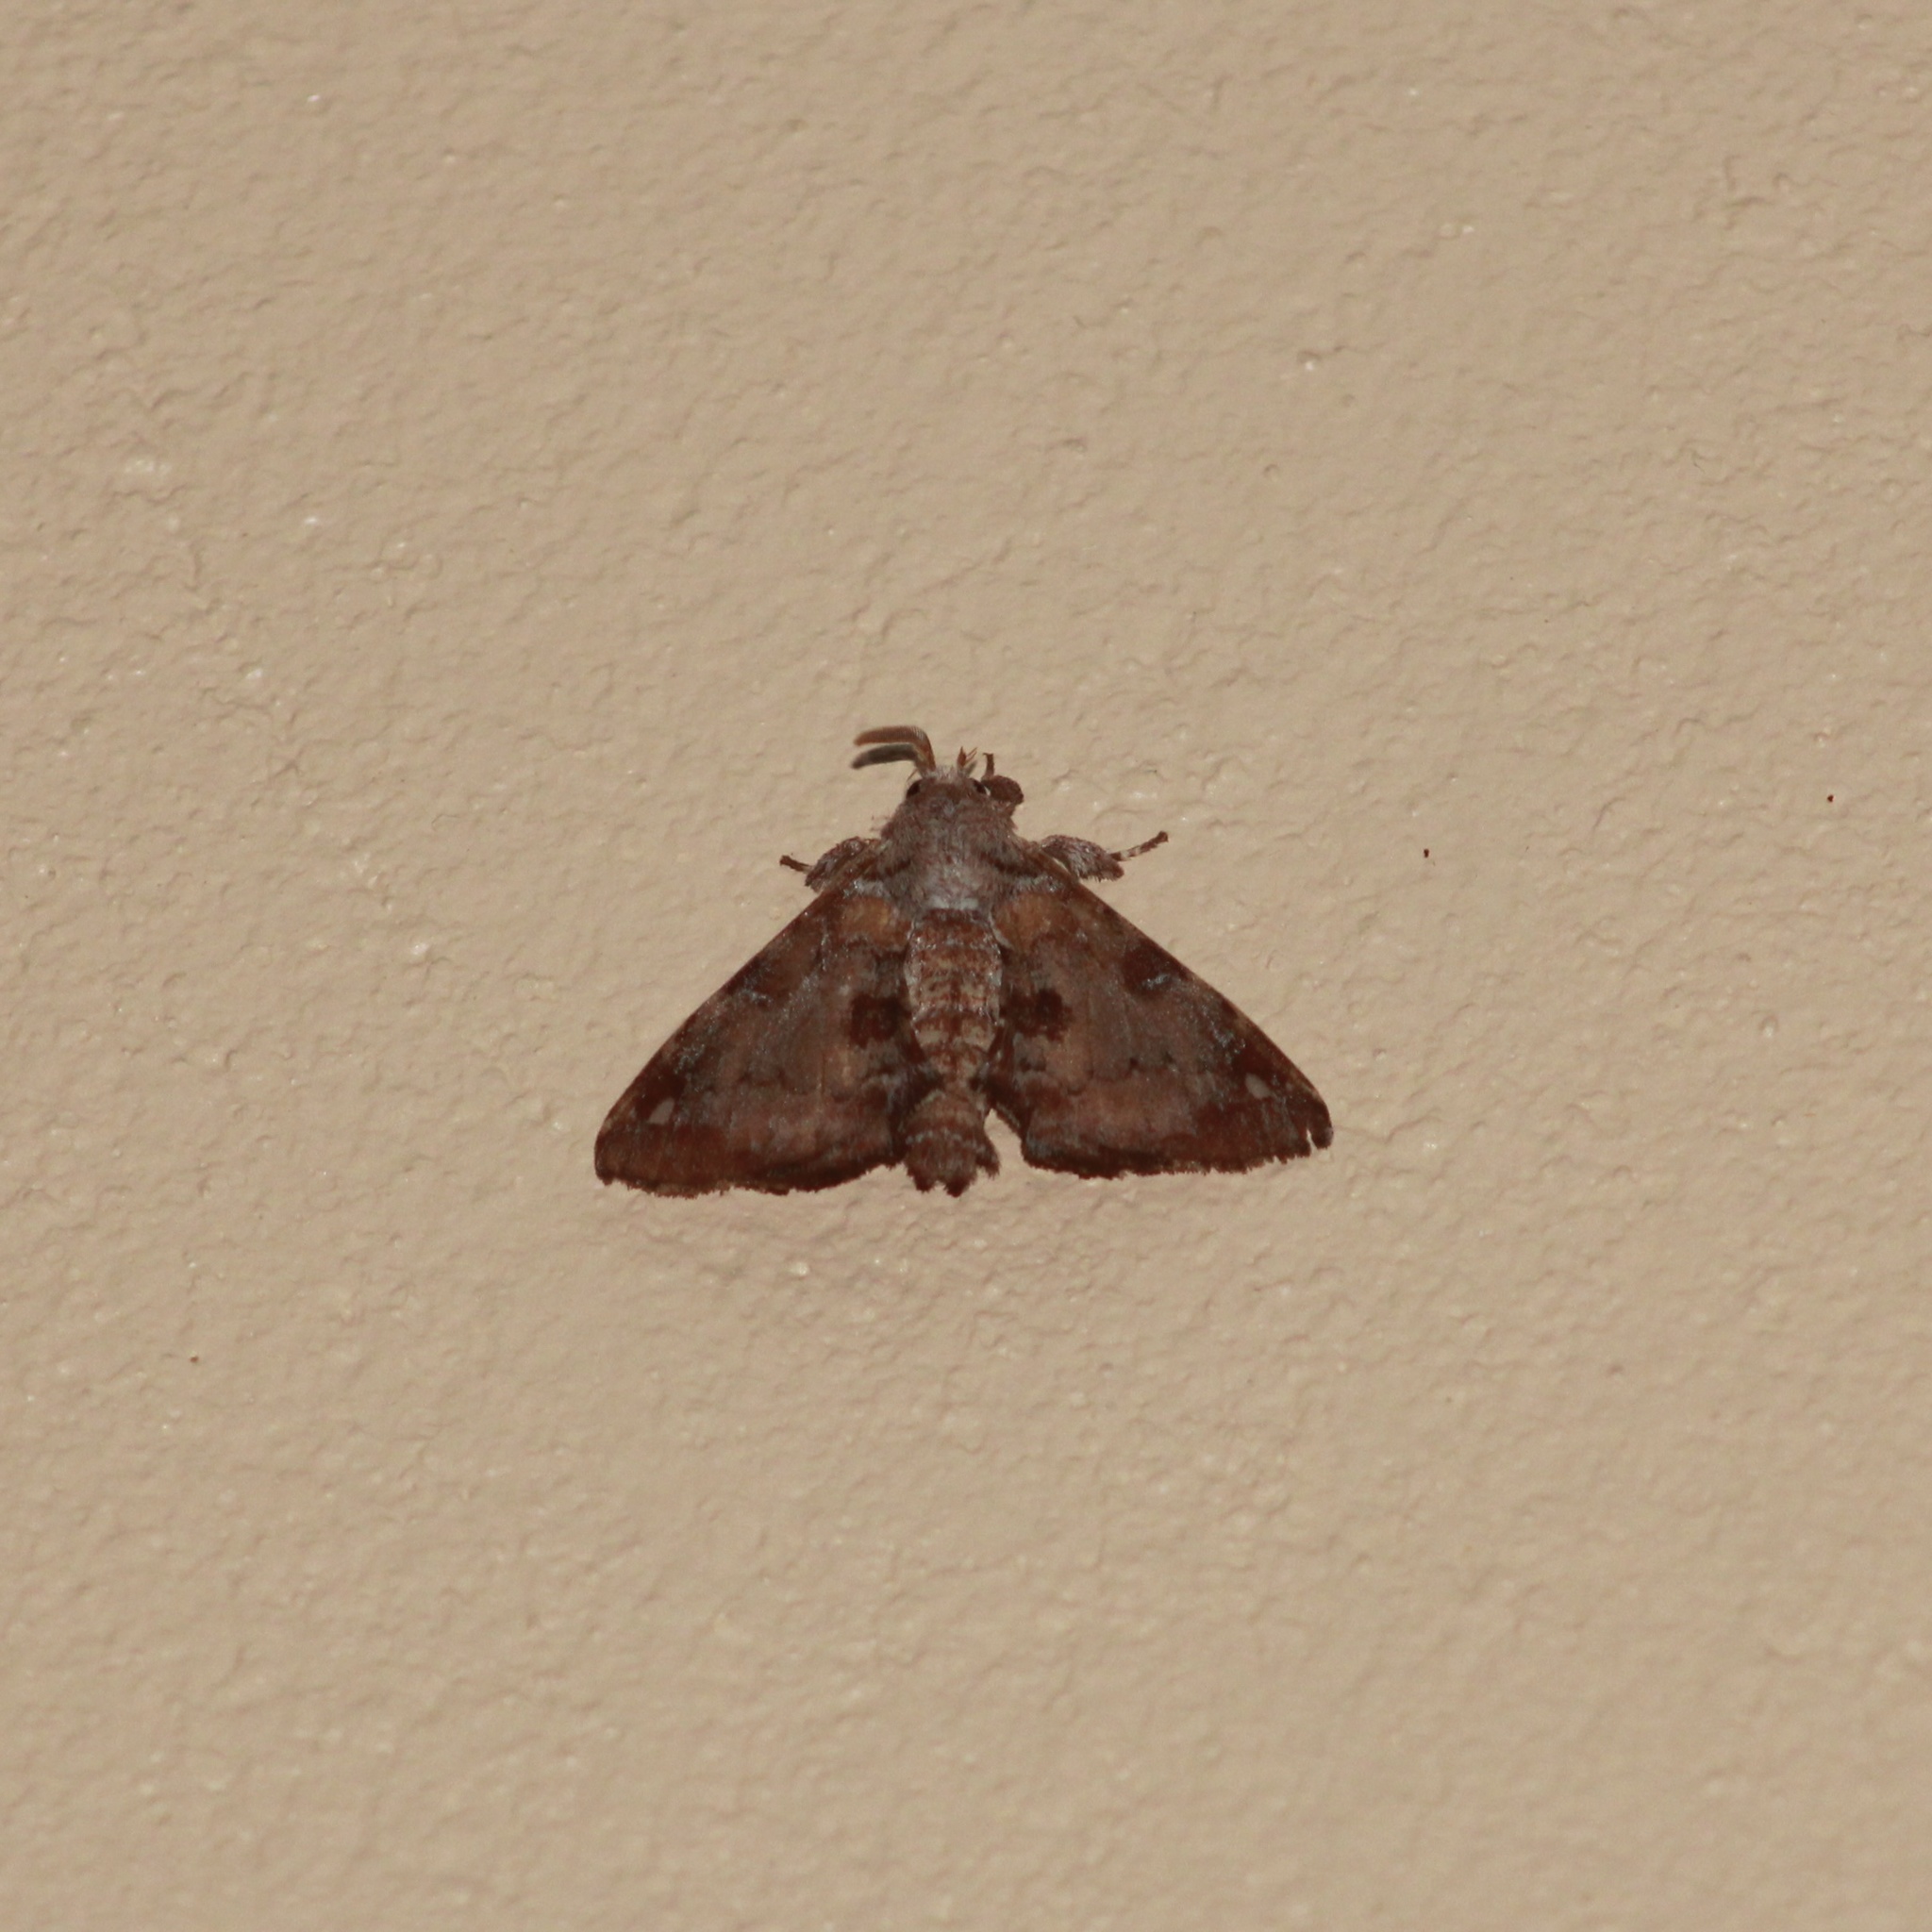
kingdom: Animalia
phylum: Arthropoda
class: Insecta
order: Lepidoptera
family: Apatelodidae
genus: Hygrochroa
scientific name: Hygrochroa nina
